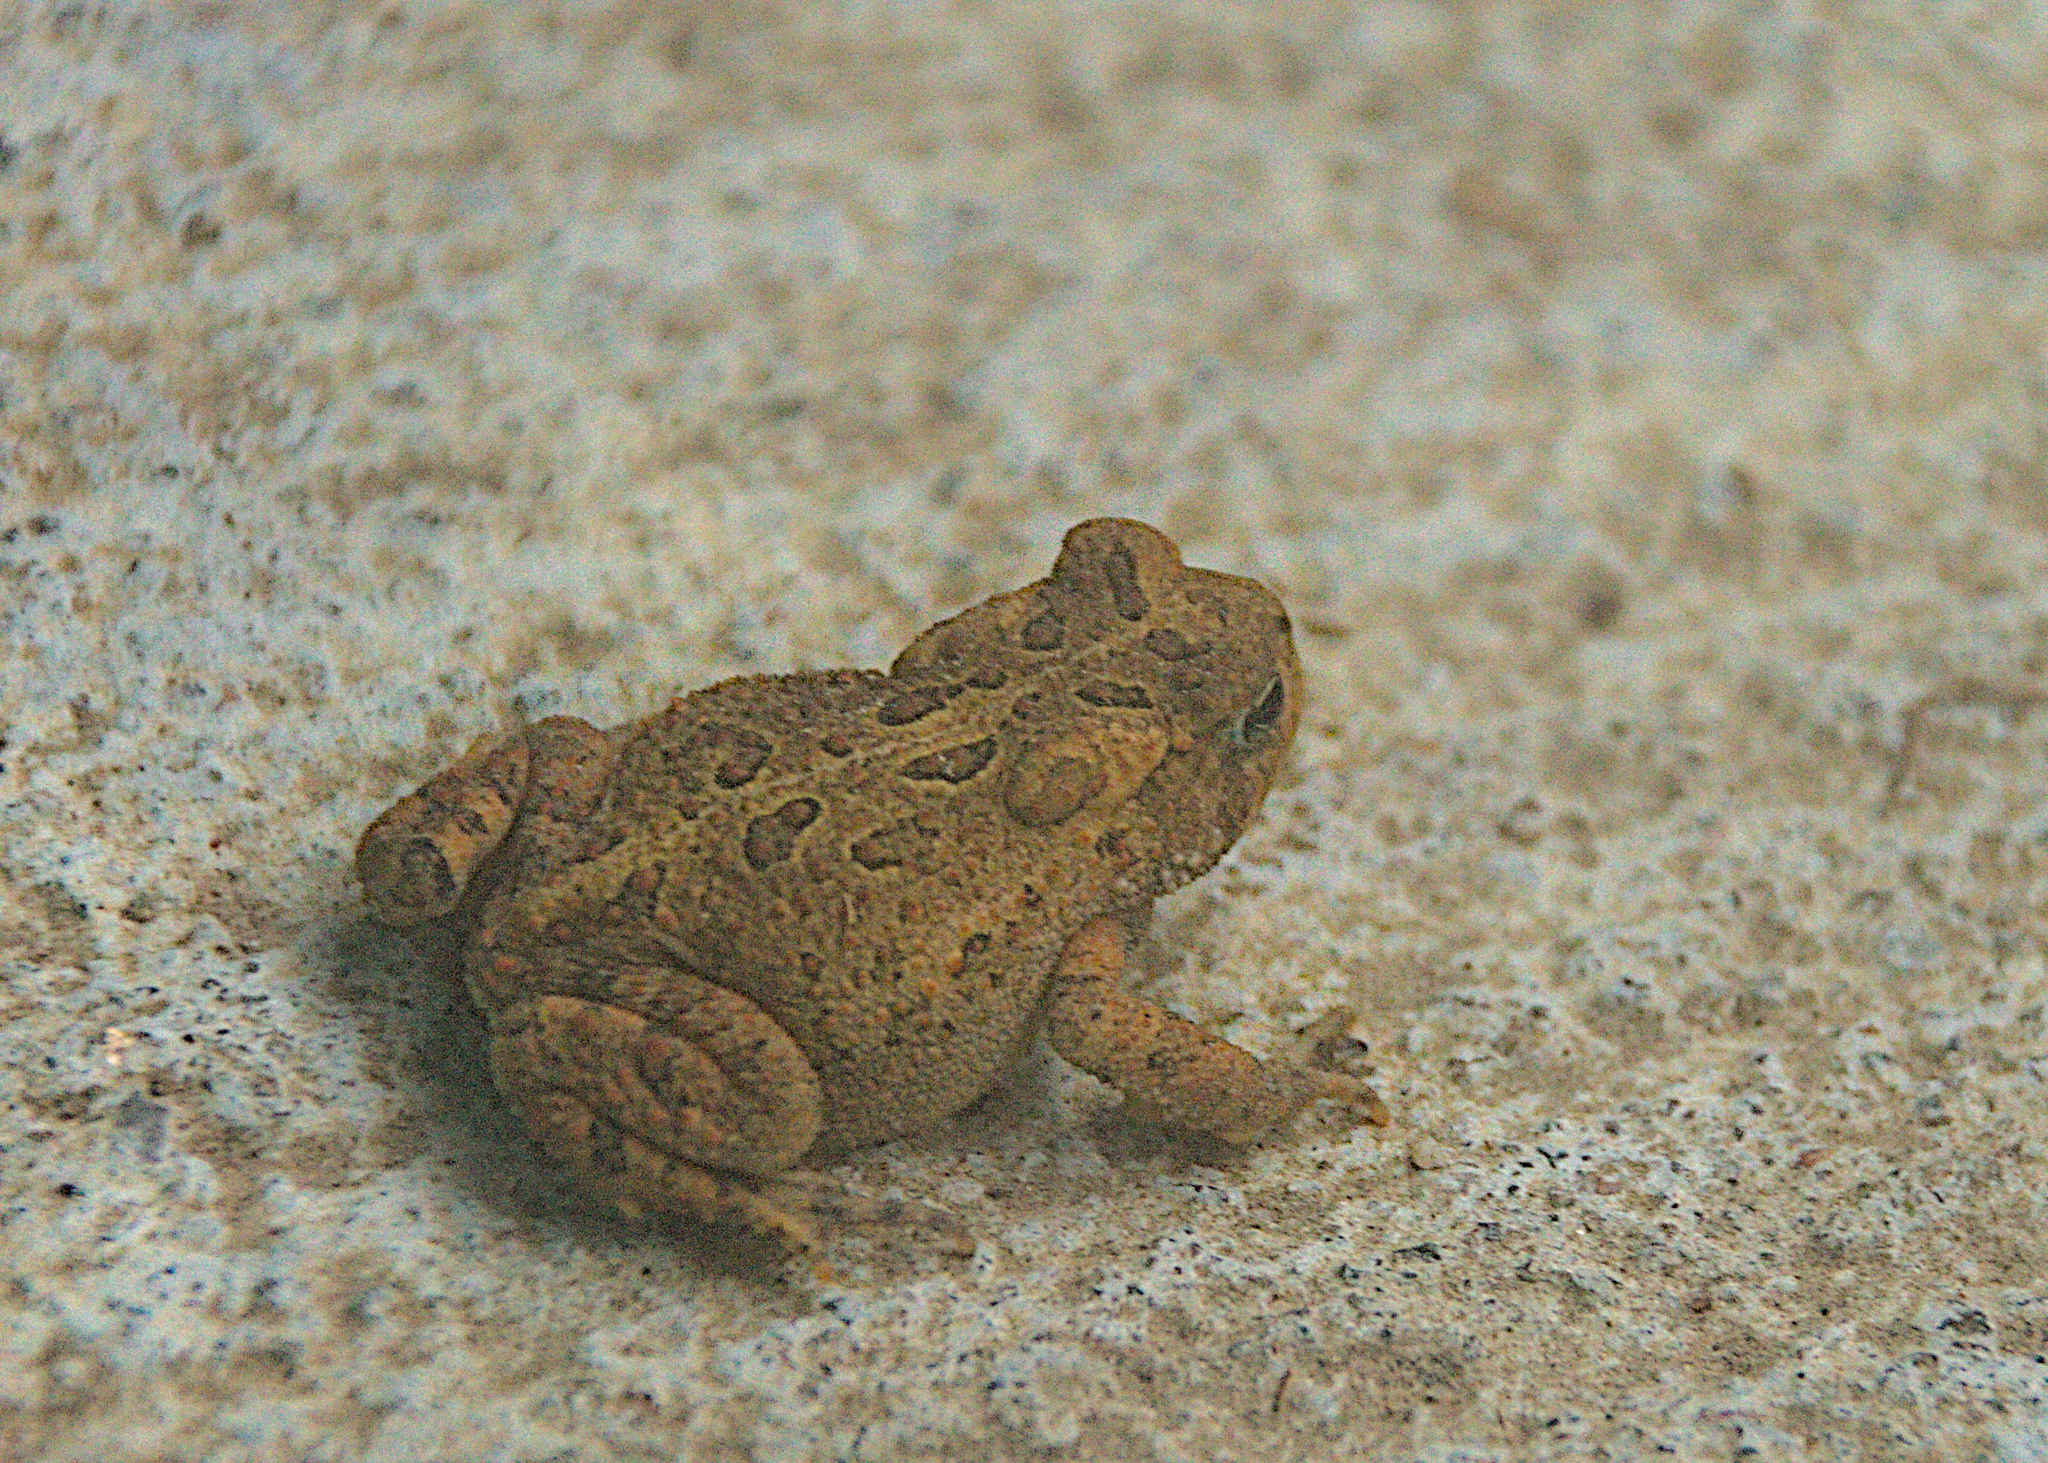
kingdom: Animalia
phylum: Chordata
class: Amphibia
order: Anura
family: Bufonidae
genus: Anaxyrus
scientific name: Anaxyrus americanus
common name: American toad
